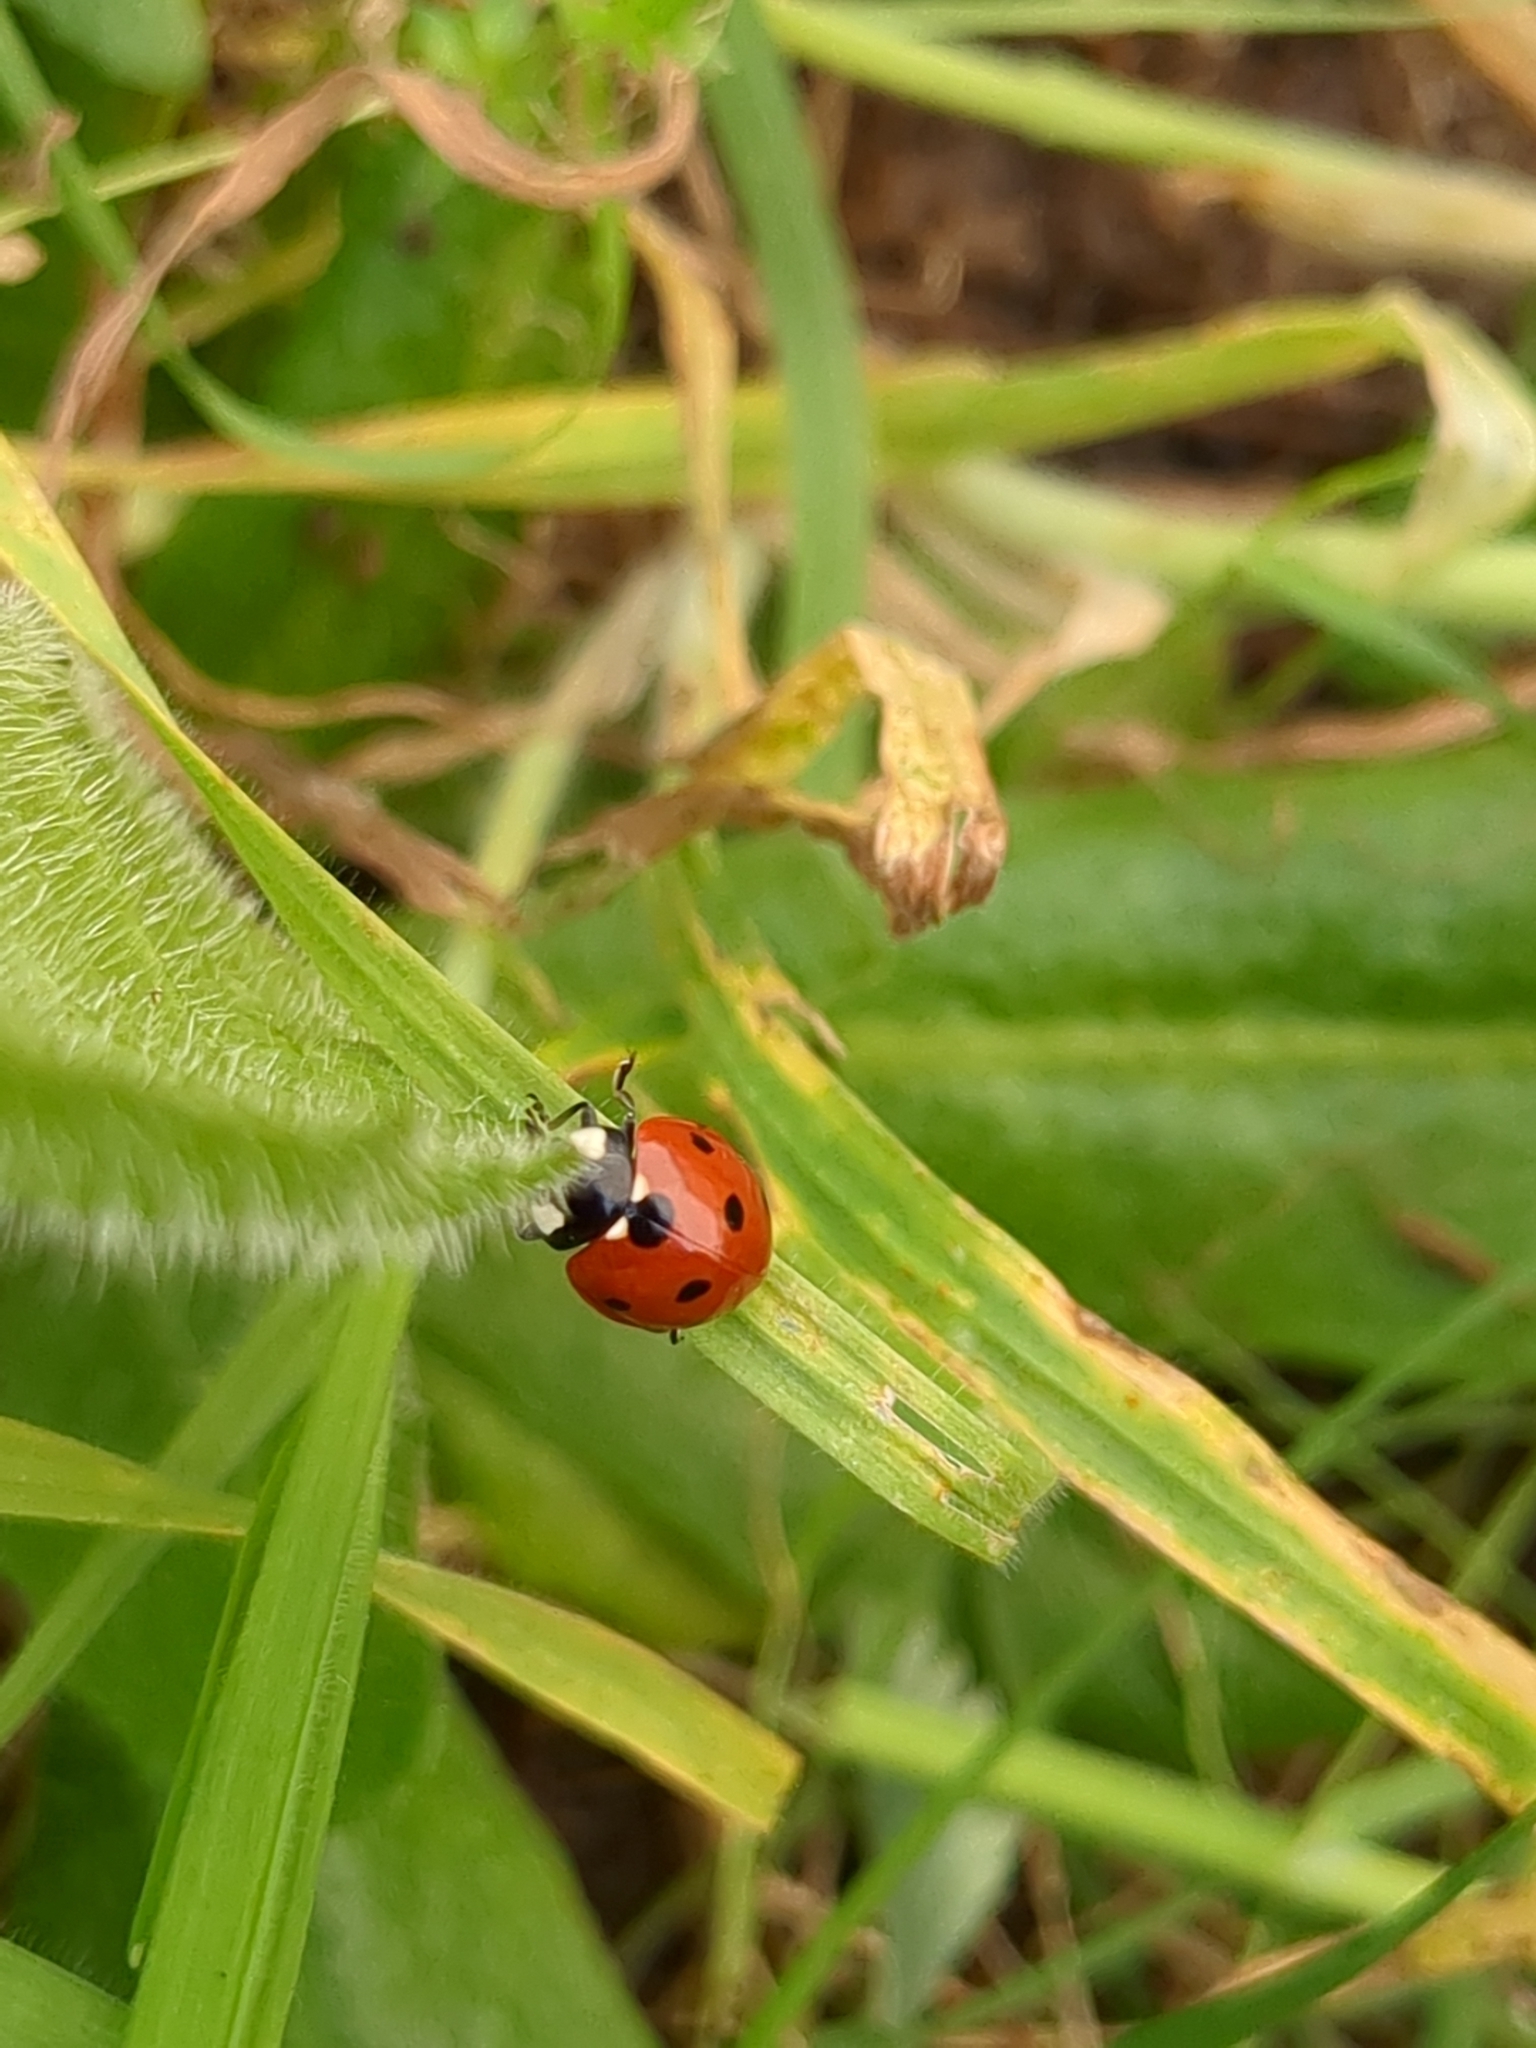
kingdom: Animalia
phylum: Arthropoda
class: Insecta
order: Coleoptera
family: Coccinellidae
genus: Coccinella
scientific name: Coccinella septempunctata
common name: Sevenspotted lady beetle
